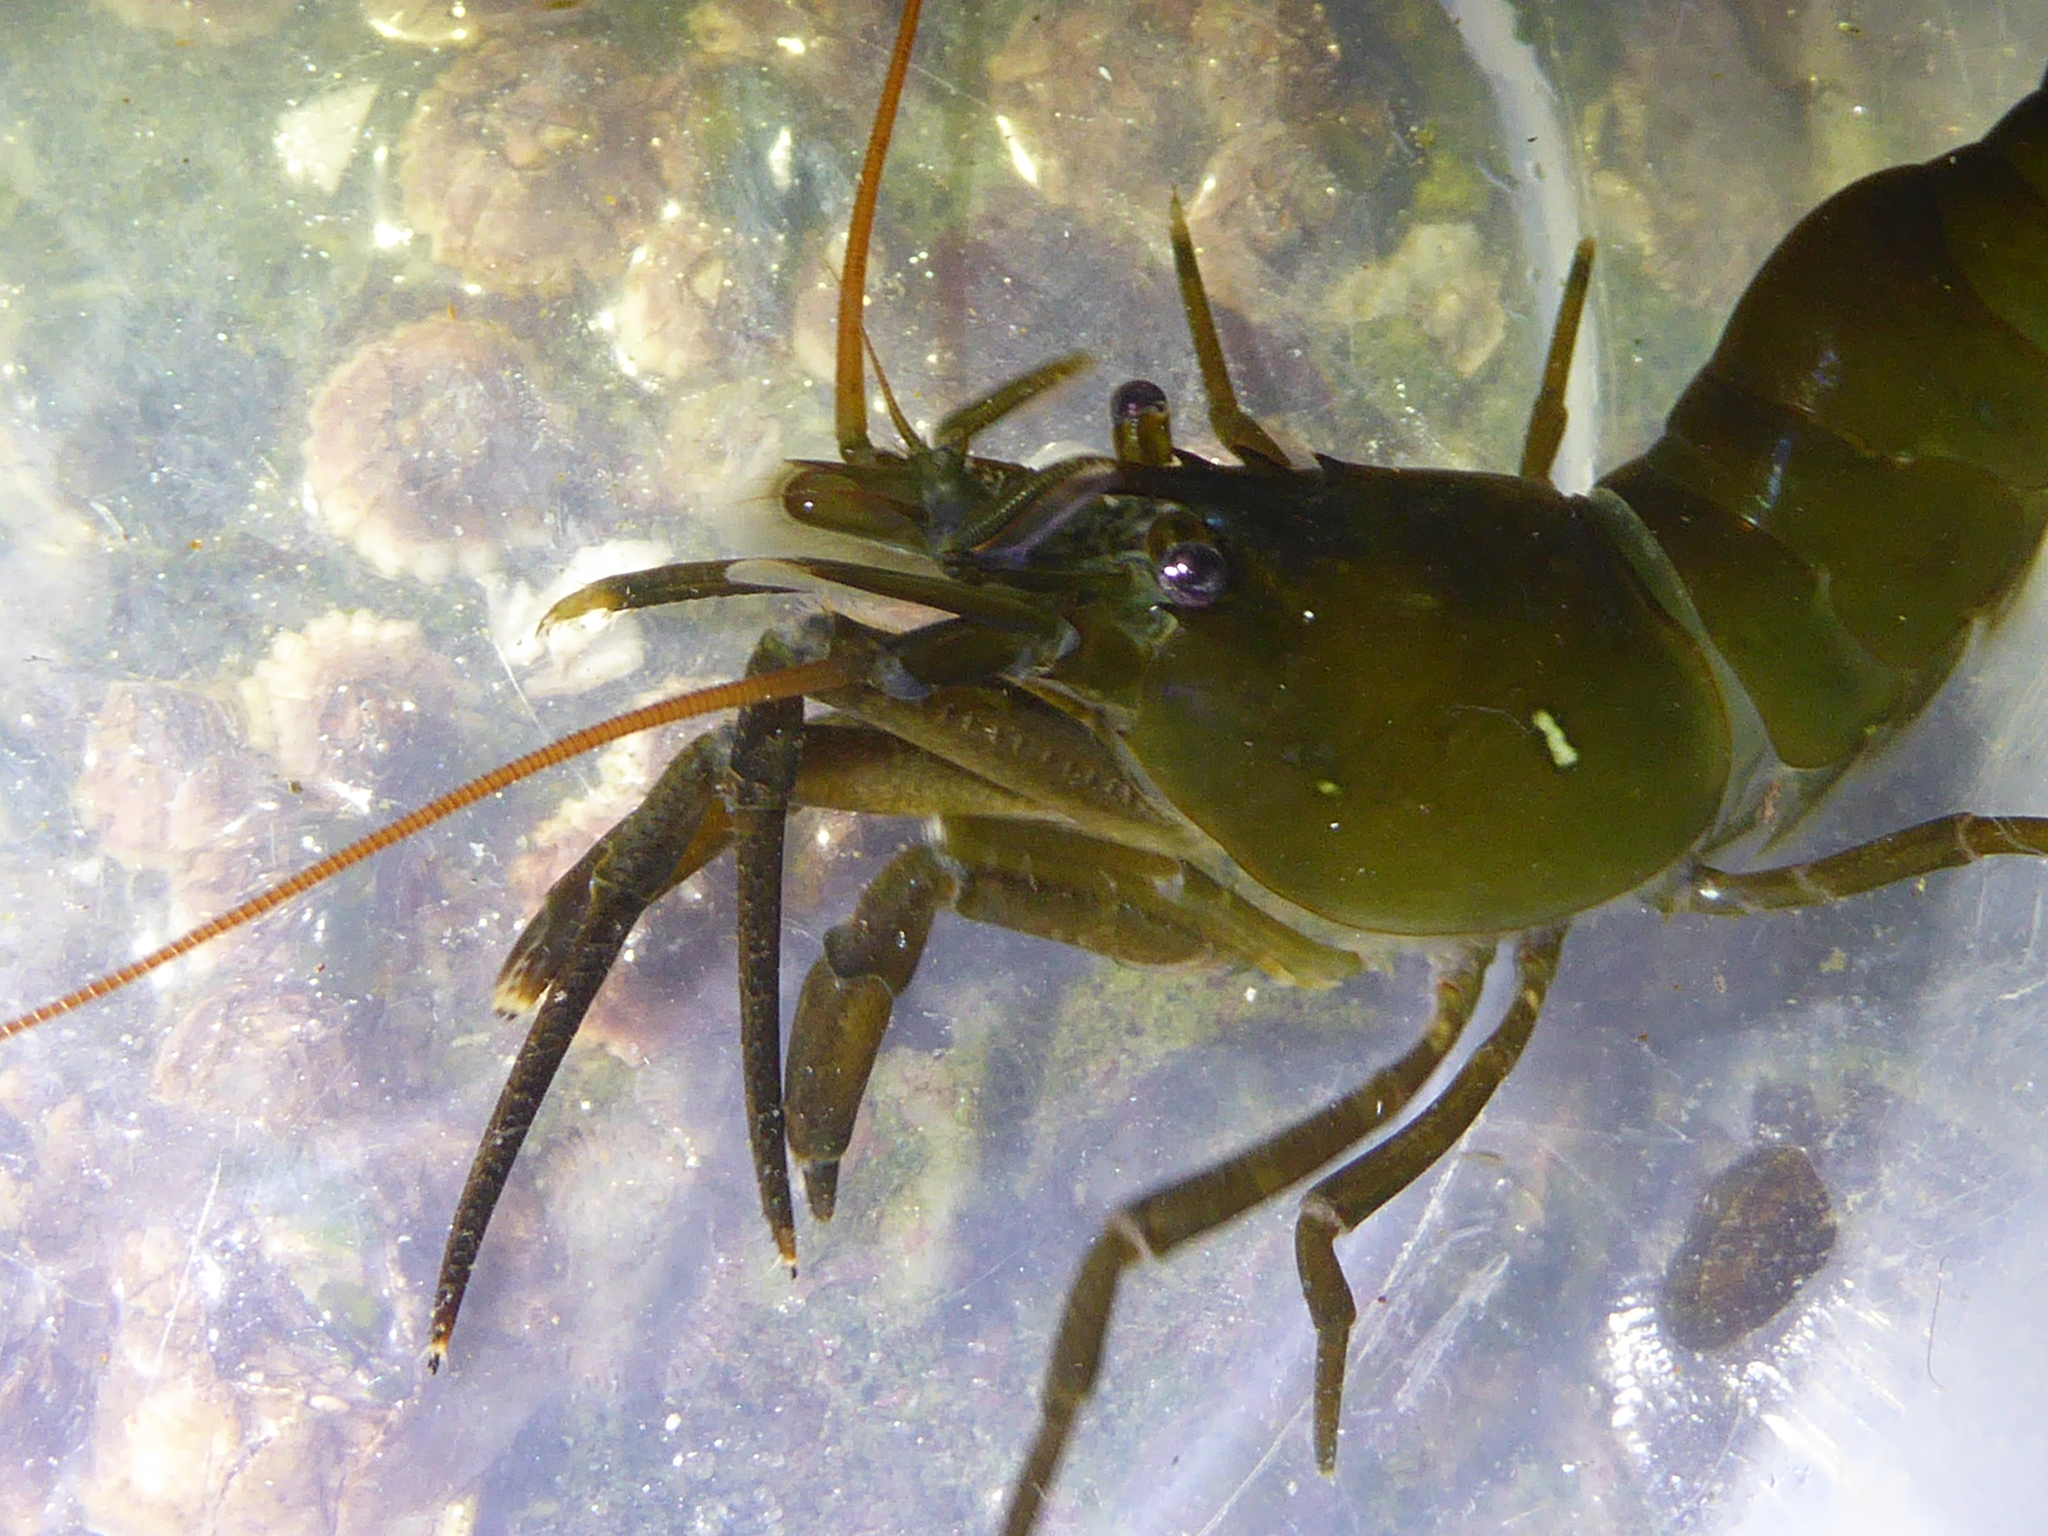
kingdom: Animalia
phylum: Arthropoda
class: Malacostraca
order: Decapoda
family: Thoridae
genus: Heptacarpus
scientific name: Heptacarpus brevirostris
